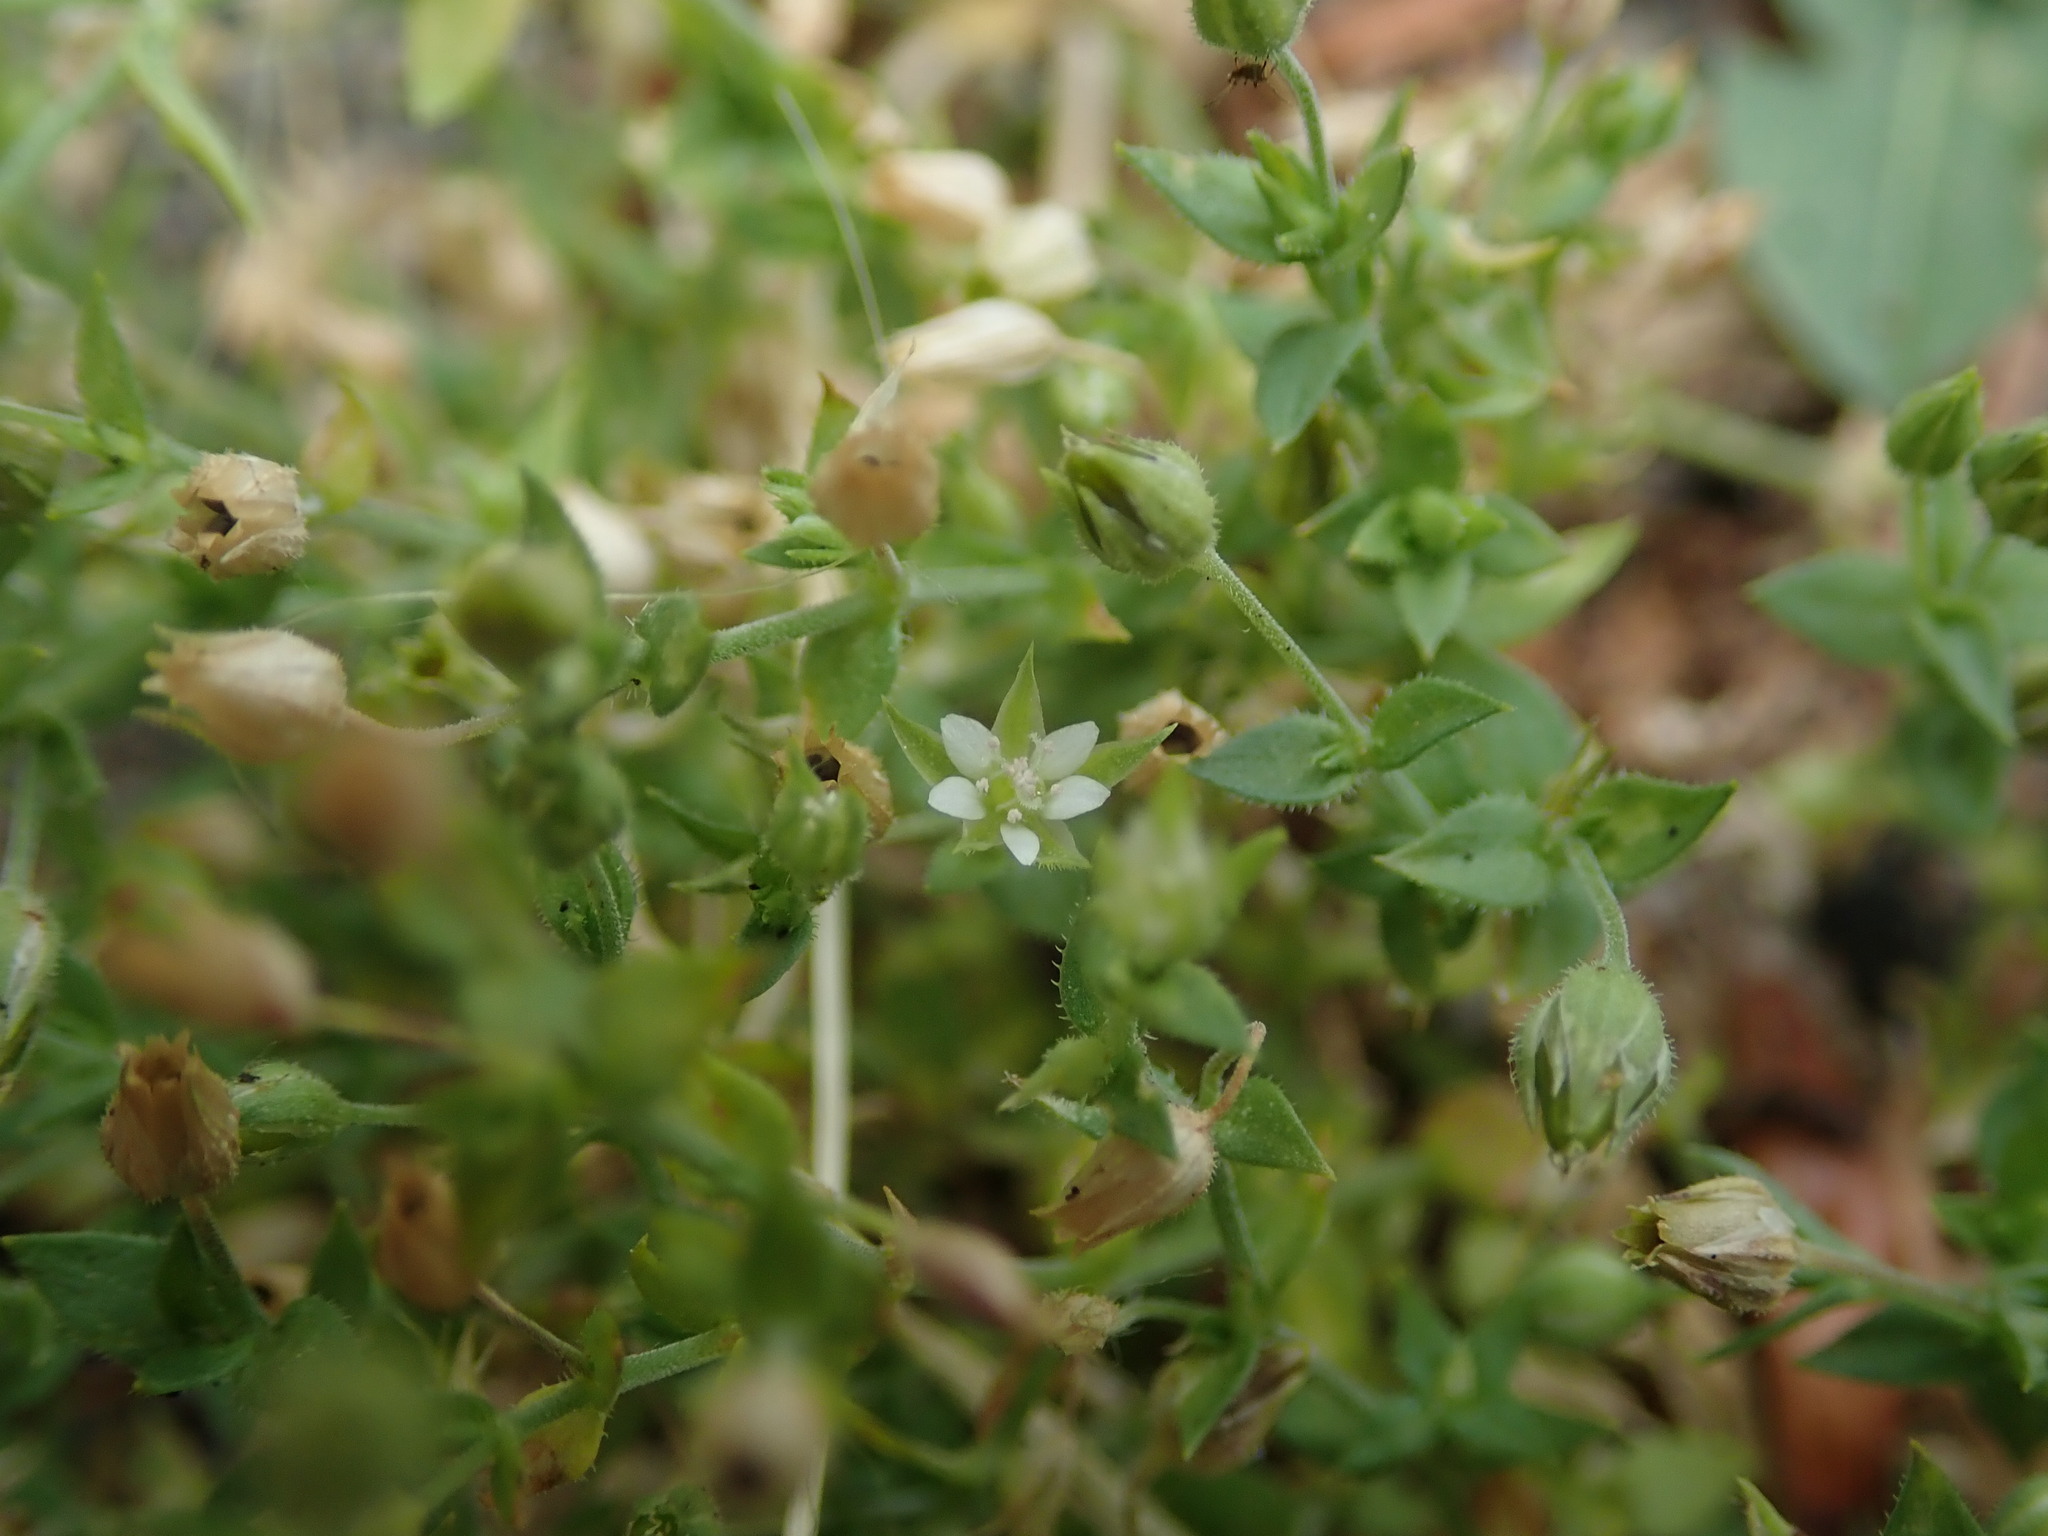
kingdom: Plantae
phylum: Tracheophyta
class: Magnoliopsida
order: Caryophyllales
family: Caryophyllaceae
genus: Arenaria
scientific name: Arenaria serpyllifolia
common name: Thyme-leaved sandwort
